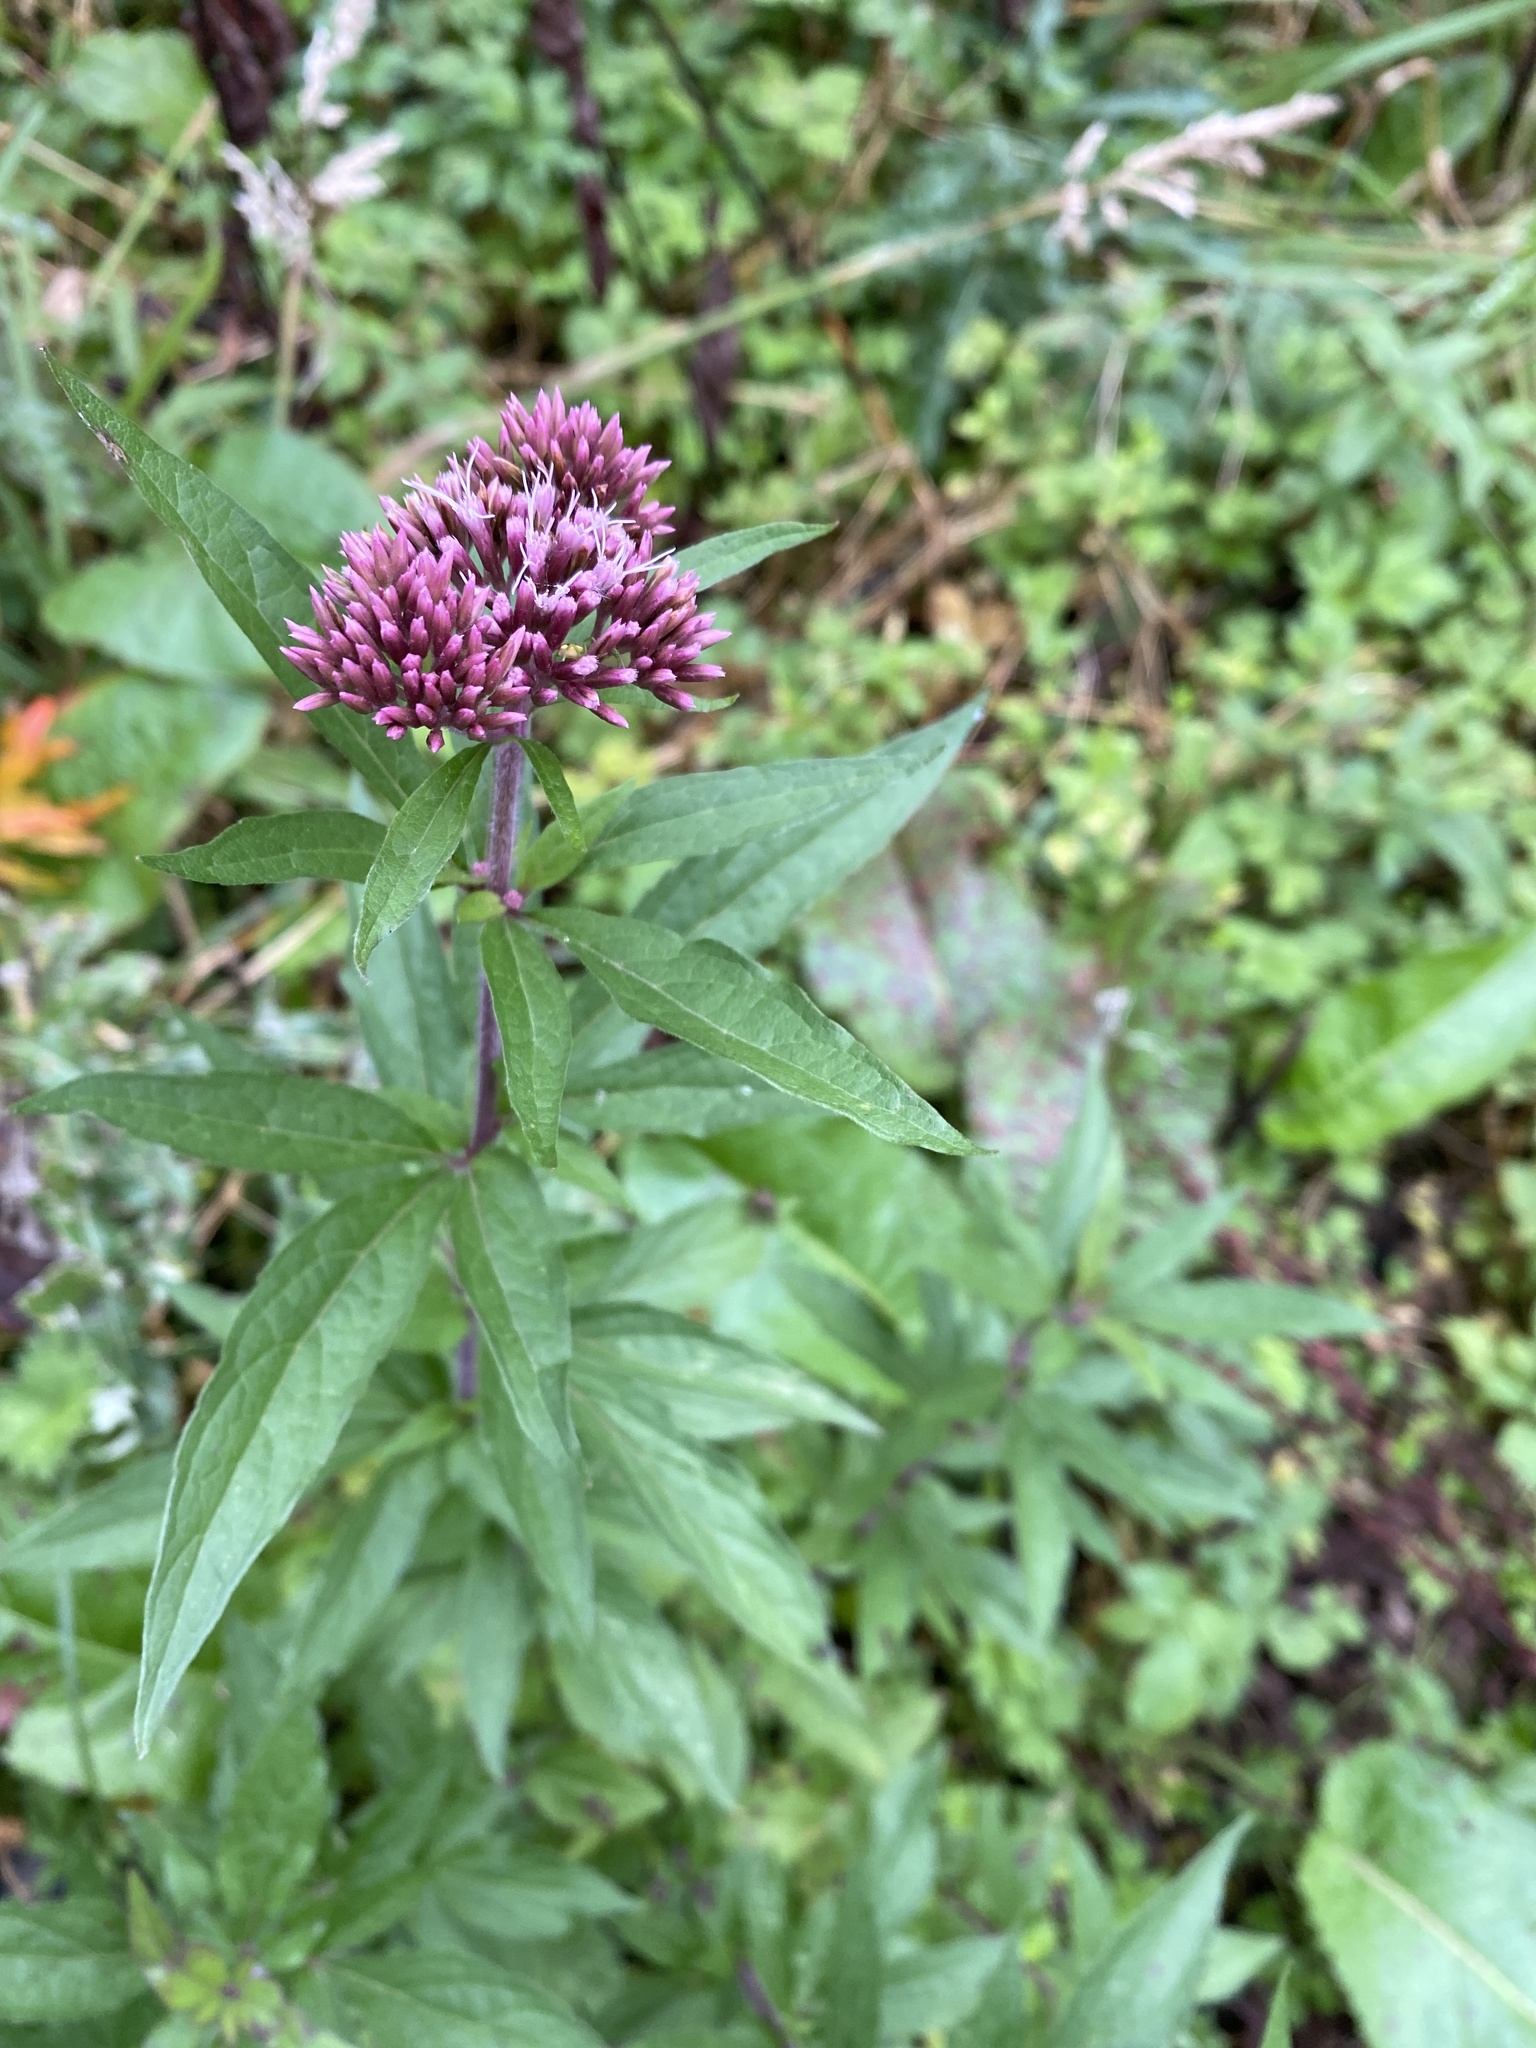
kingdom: Plantae
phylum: Tracheophyta
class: Magnoliopsida
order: Asterales
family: Asteraceae
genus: Eupatorium
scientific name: Eupatorium cannabinum
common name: Hemp-agrimony
